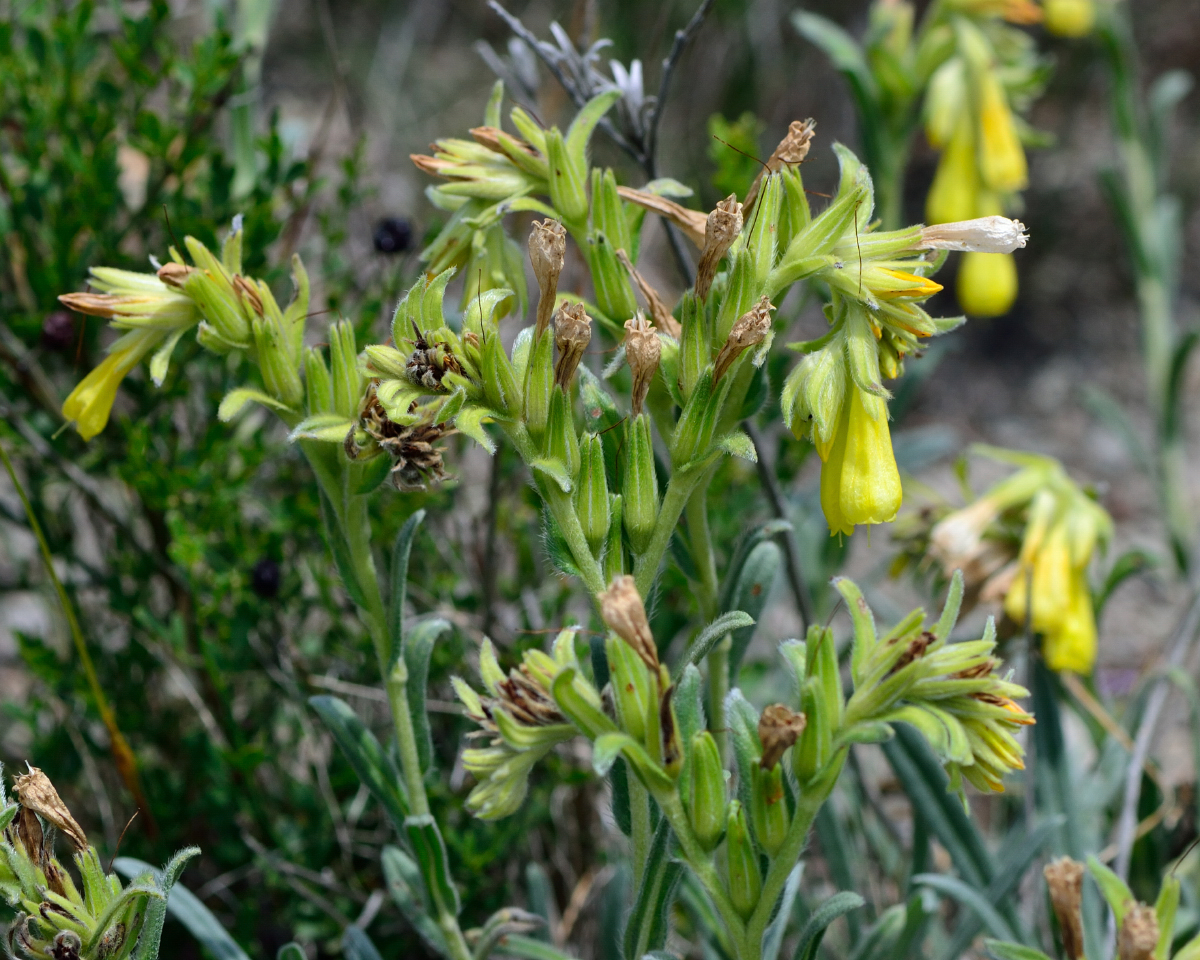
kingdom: Plantae
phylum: Tracheophyta
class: Magnoliopsida
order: Boraginales
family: Boraginaceae
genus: Onosma
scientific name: Onosma taurica
